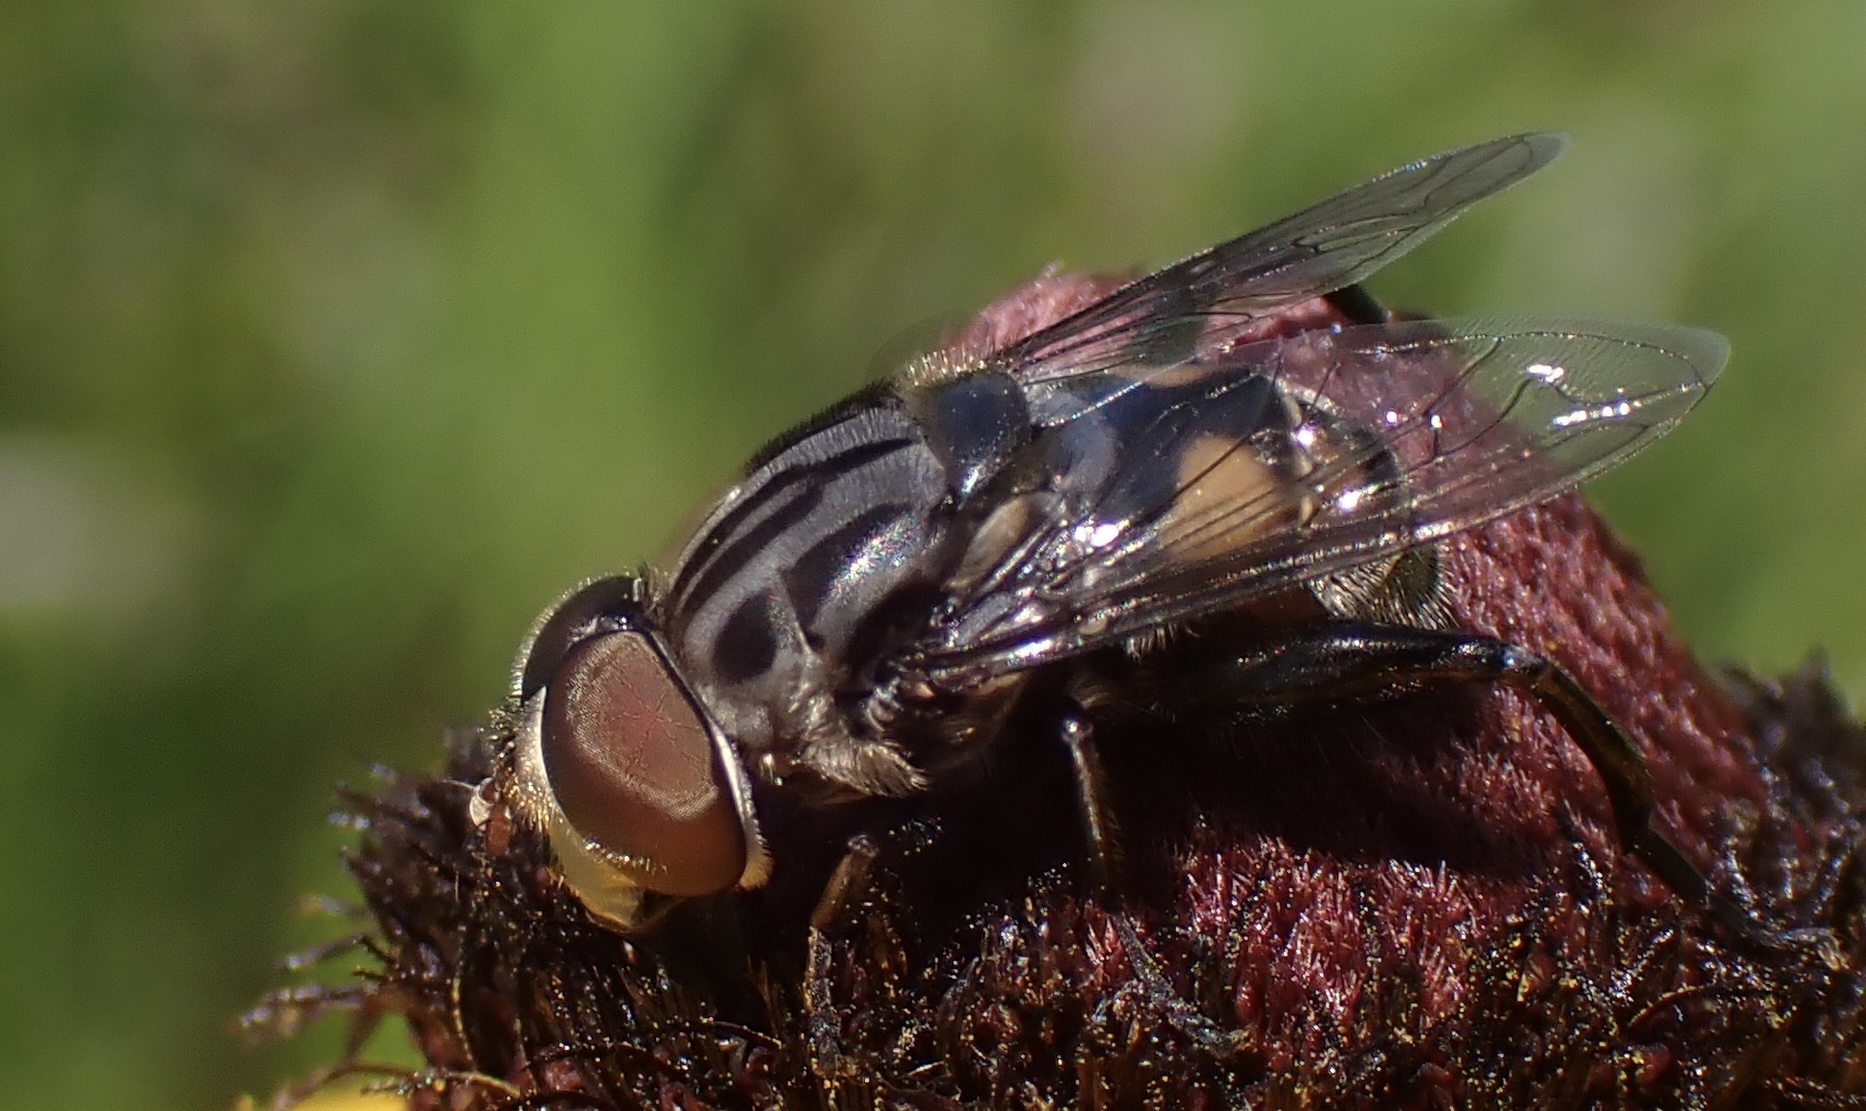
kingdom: Animalia
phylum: Arthropoda
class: Insecta
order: Diptera
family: Syrphidae
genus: Palpada
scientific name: Palpada furcata
